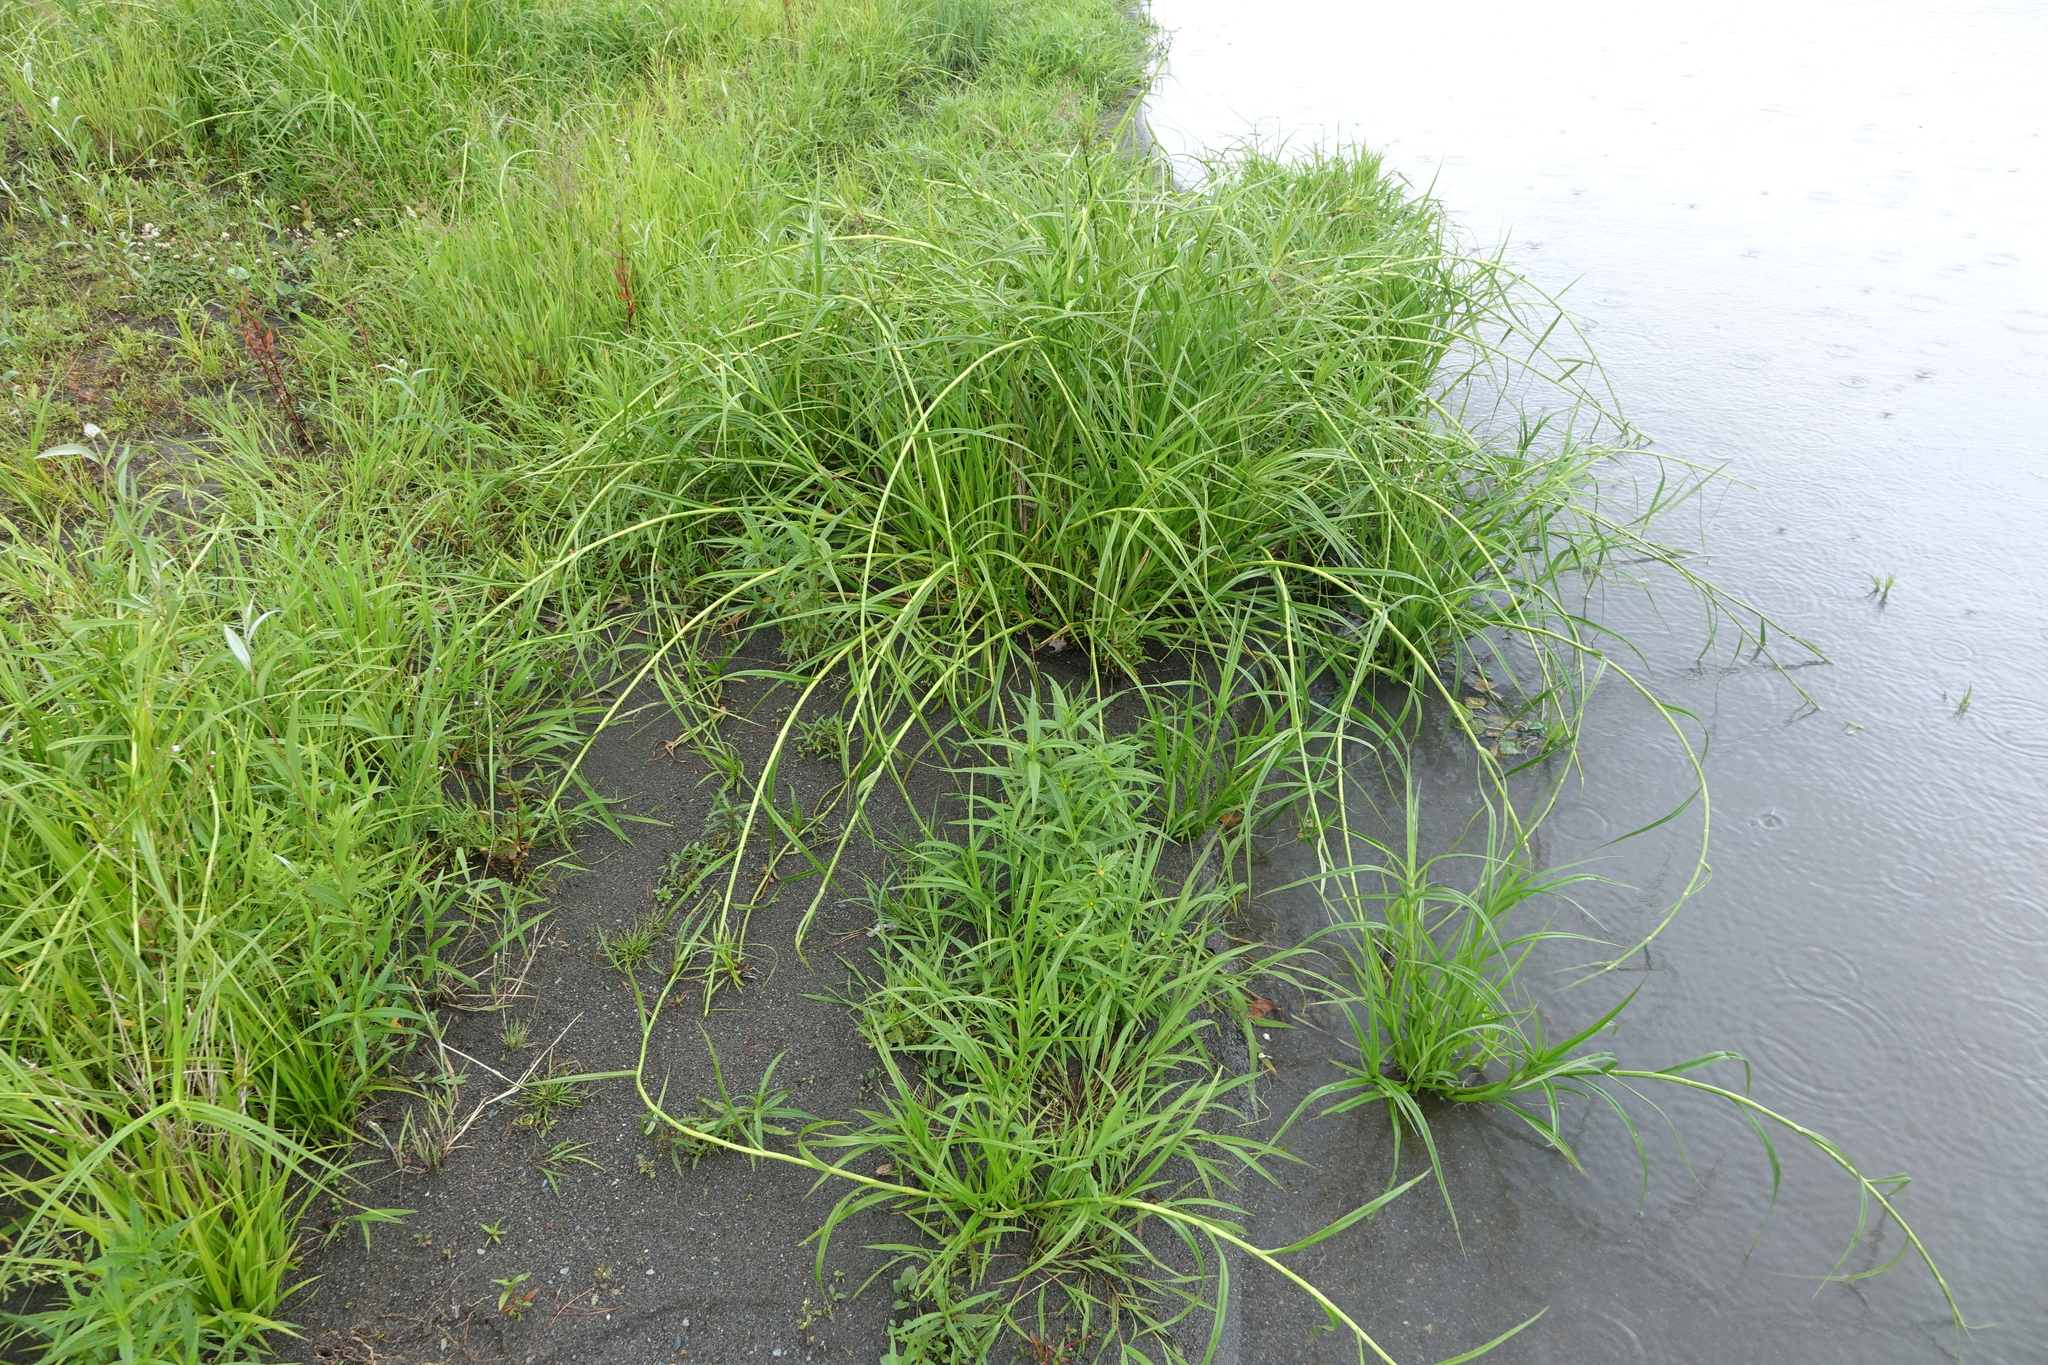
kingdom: Plantae
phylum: Tracheophyta
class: Liliopsida
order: Poales
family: Cyperaceae
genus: Scirpus
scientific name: Scirpus radicans
